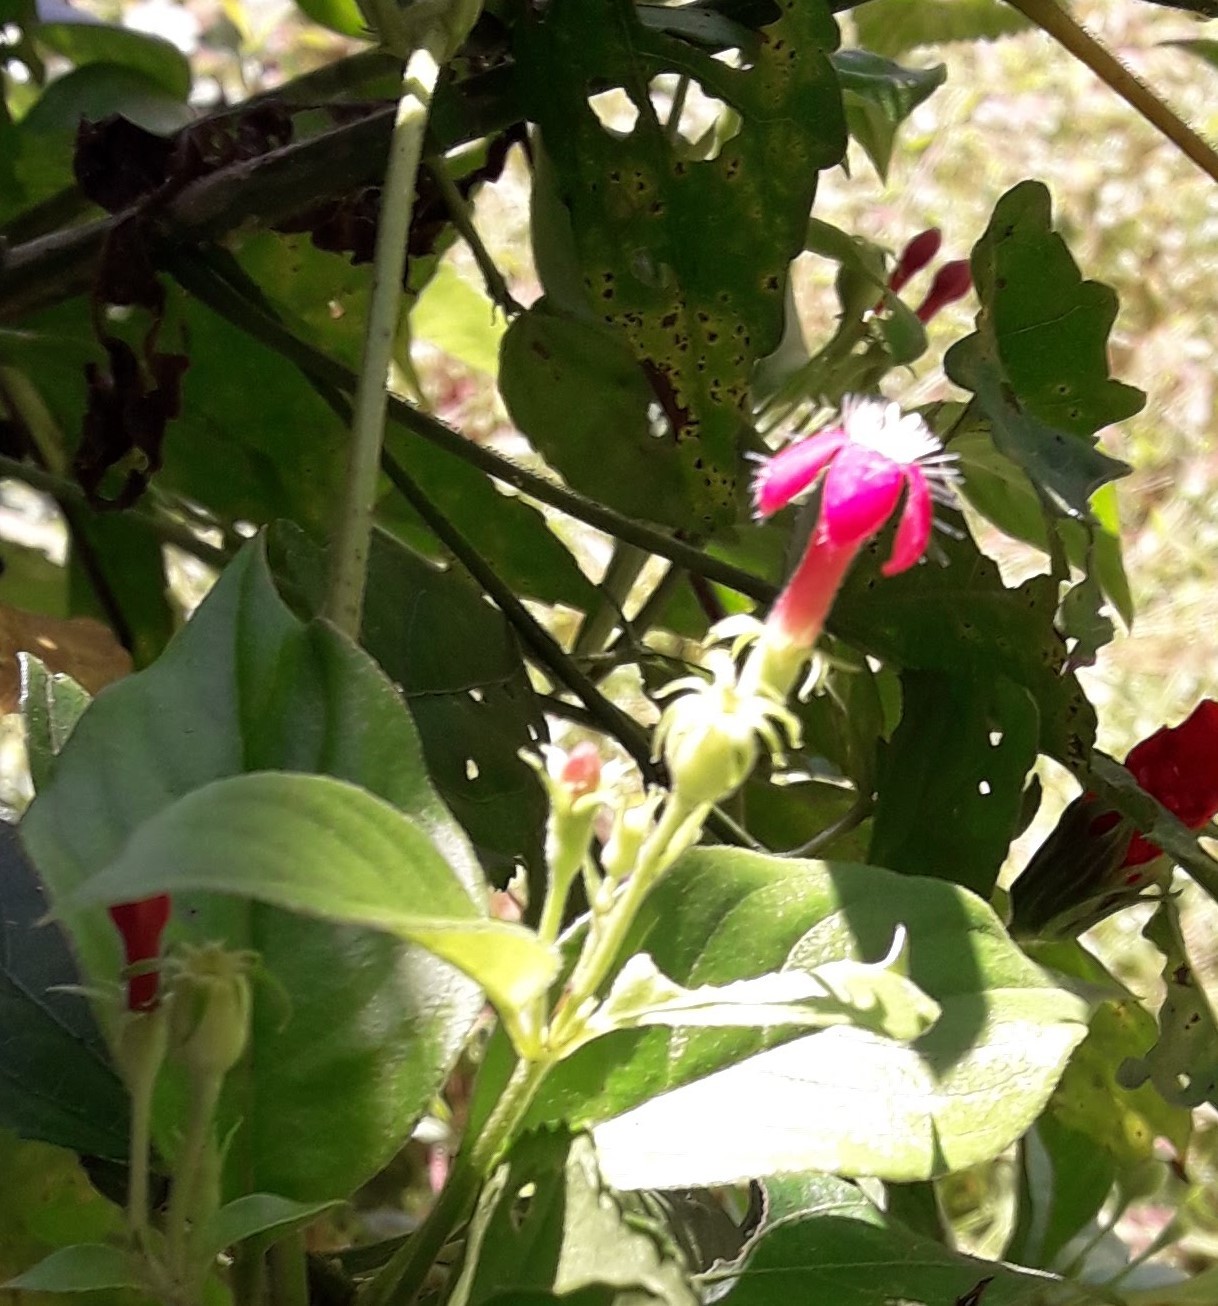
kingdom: Plantae
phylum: Tracheophyta
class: Magnoliopsida
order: Gentianales
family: Rubiaceae
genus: Manettia
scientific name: Manettia reclinata
